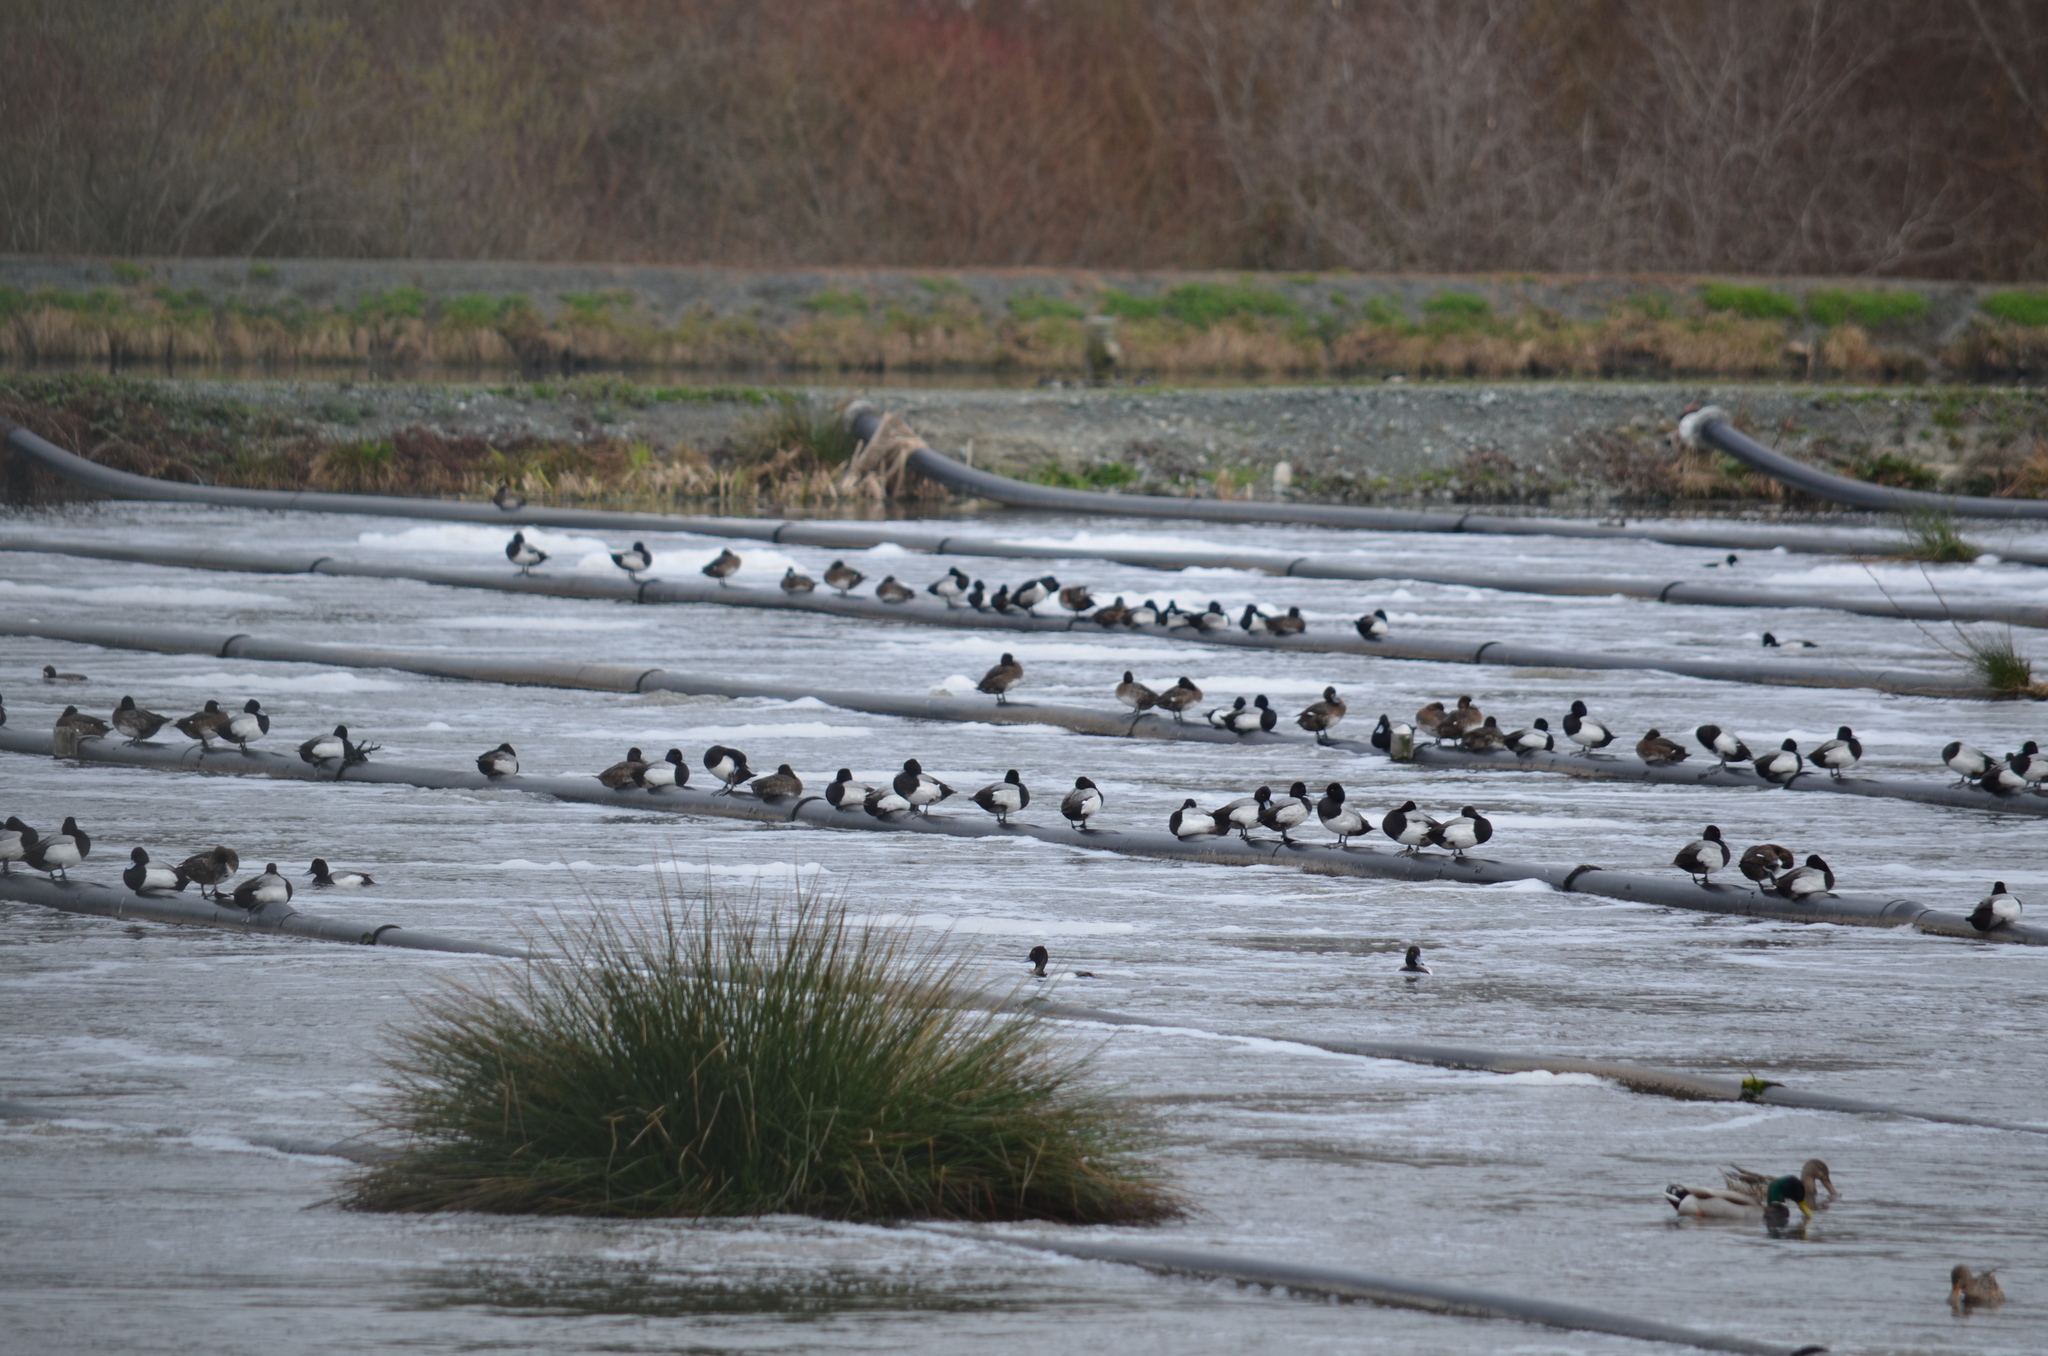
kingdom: Animalia
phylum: Chordata
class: Aves
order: Anseriformes
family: Anatidae
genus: Aythya
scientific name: Aythya affinis
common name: Lesser scaup
